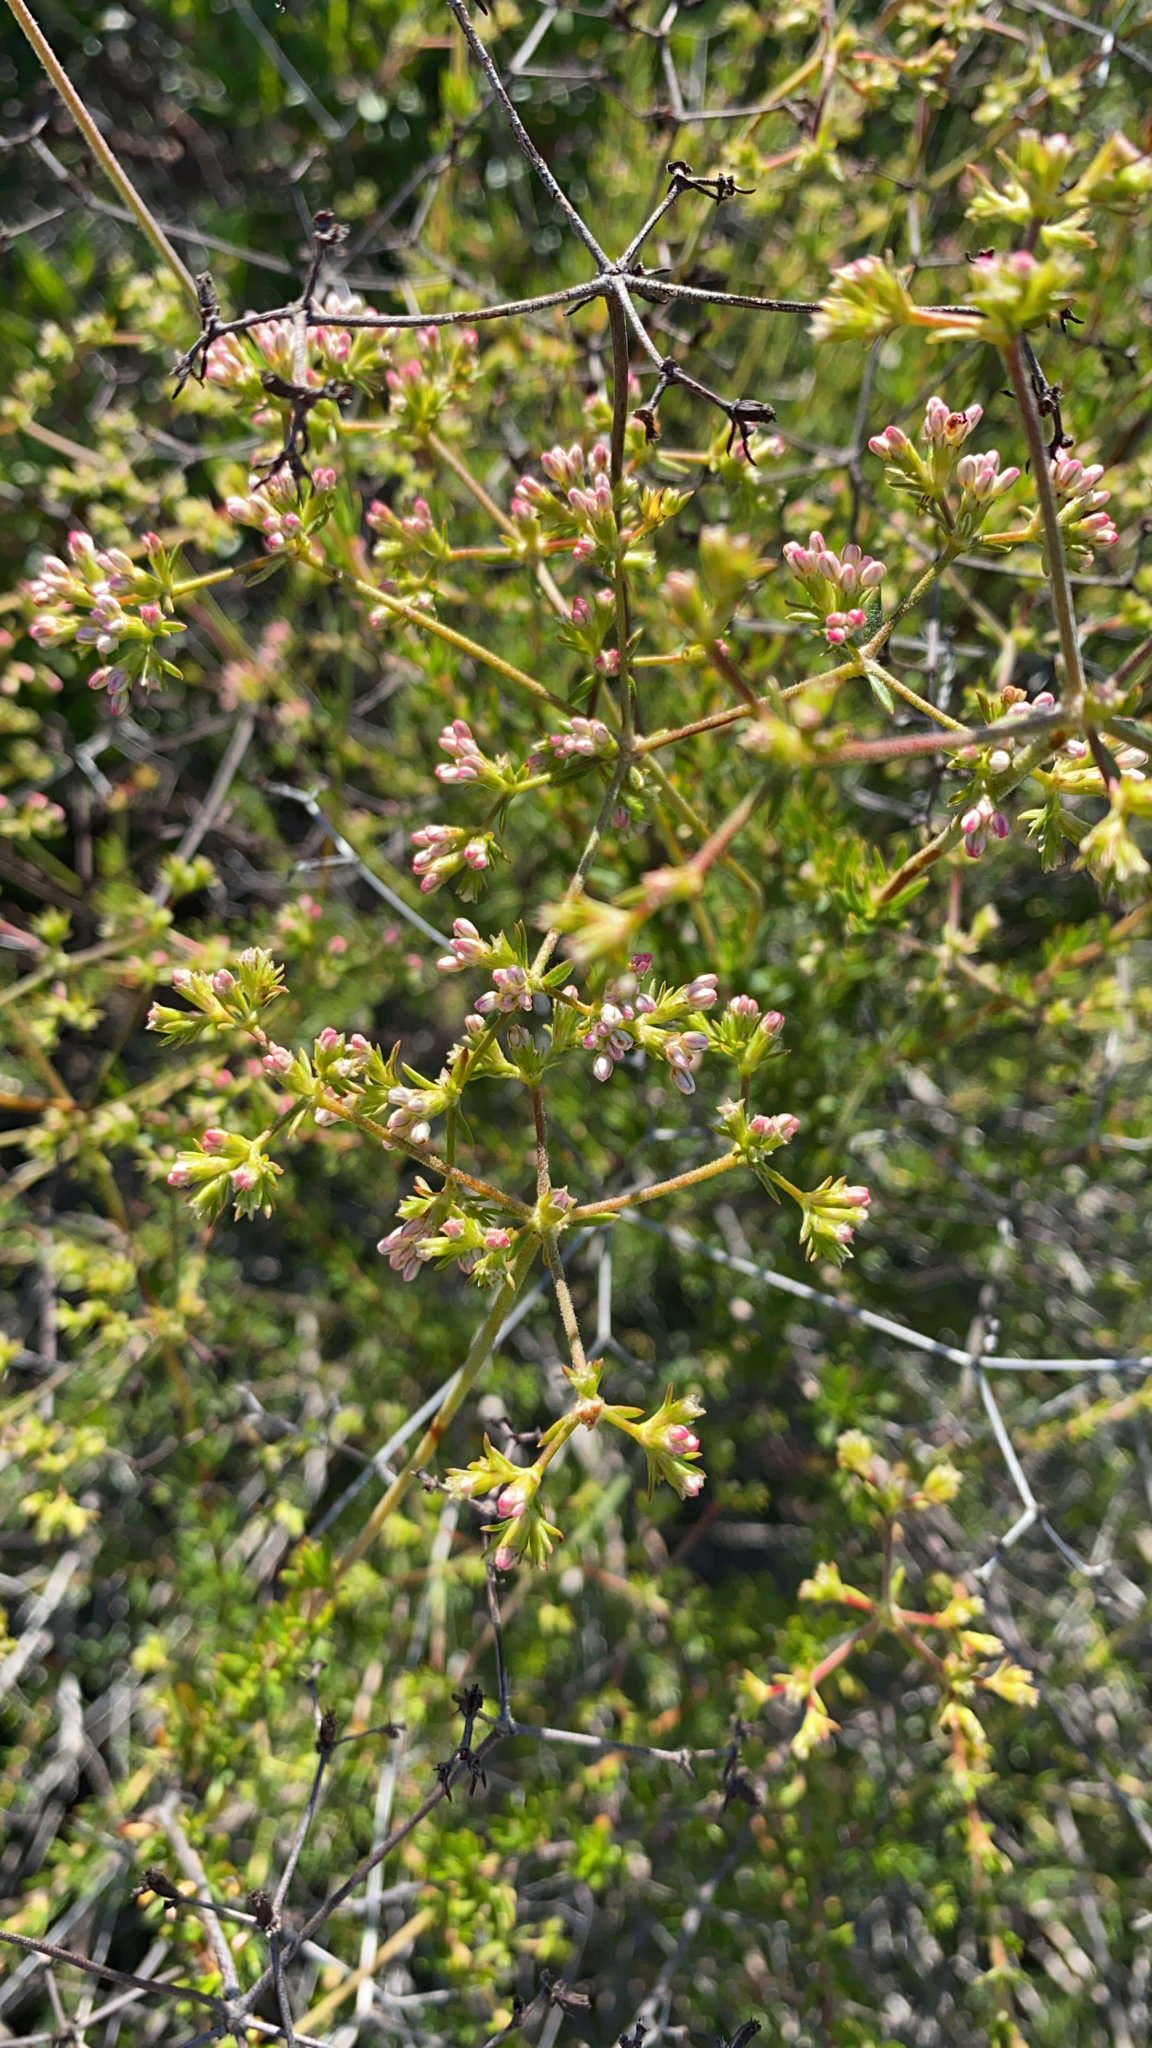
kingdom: Plantae
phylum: Tracheophyta
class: Magnoliopsida
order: Caryophyllales
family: Polygonaceae
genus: Eriogonum
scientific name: Eriogonum fasciculatum
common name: California wild buckwheat
